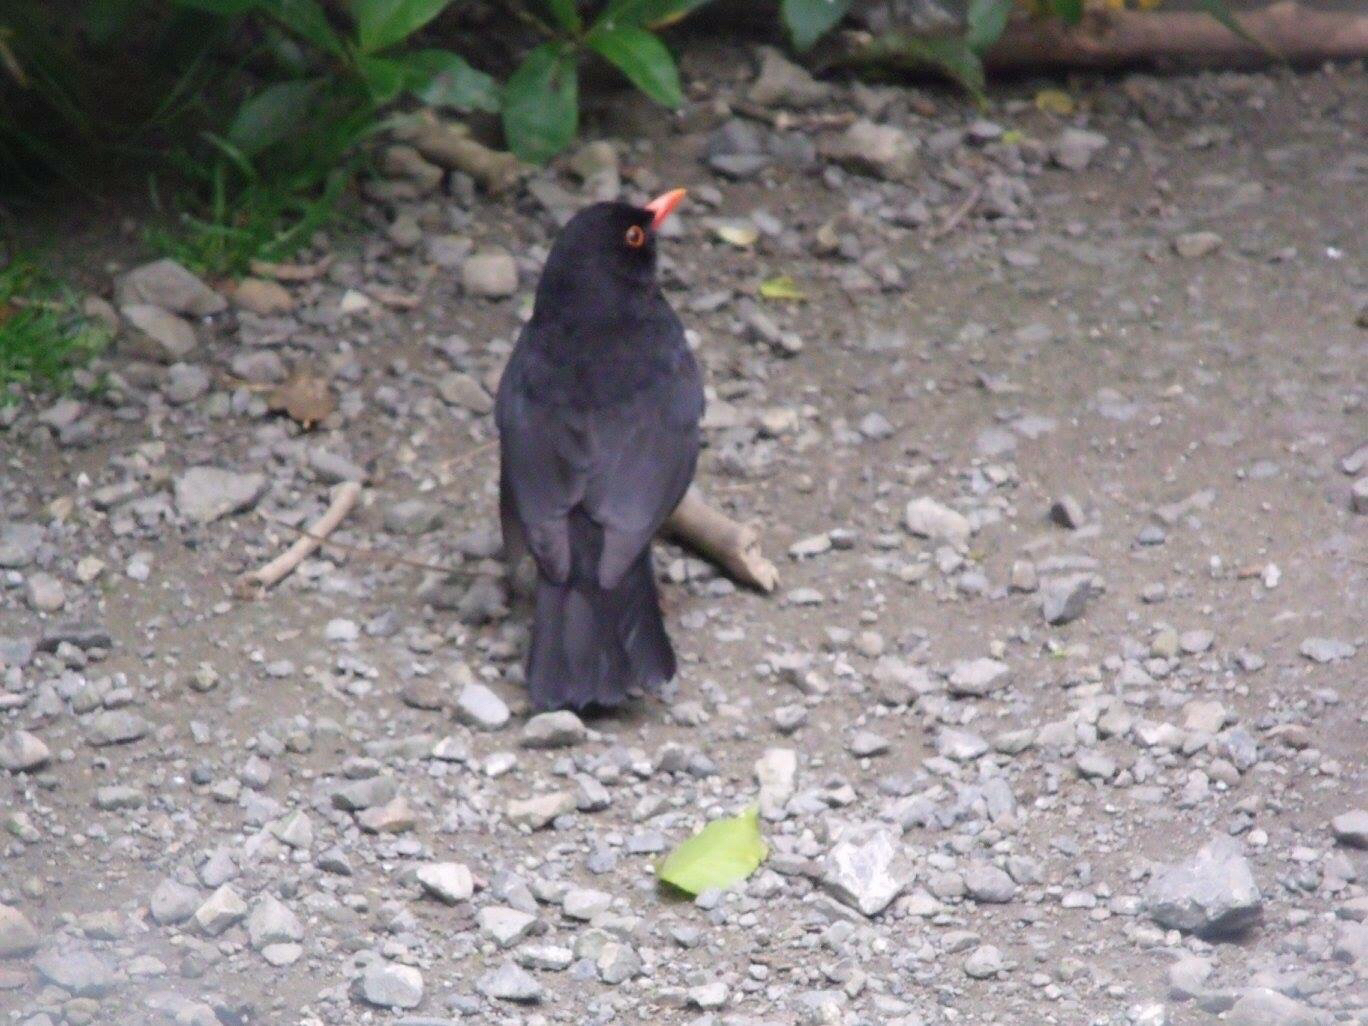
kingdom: Animalia
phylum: Chordata
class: Aves
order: Passeriformes
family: Turdidae
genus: Turdus
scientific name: Turdus merula
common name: Common blackbird
